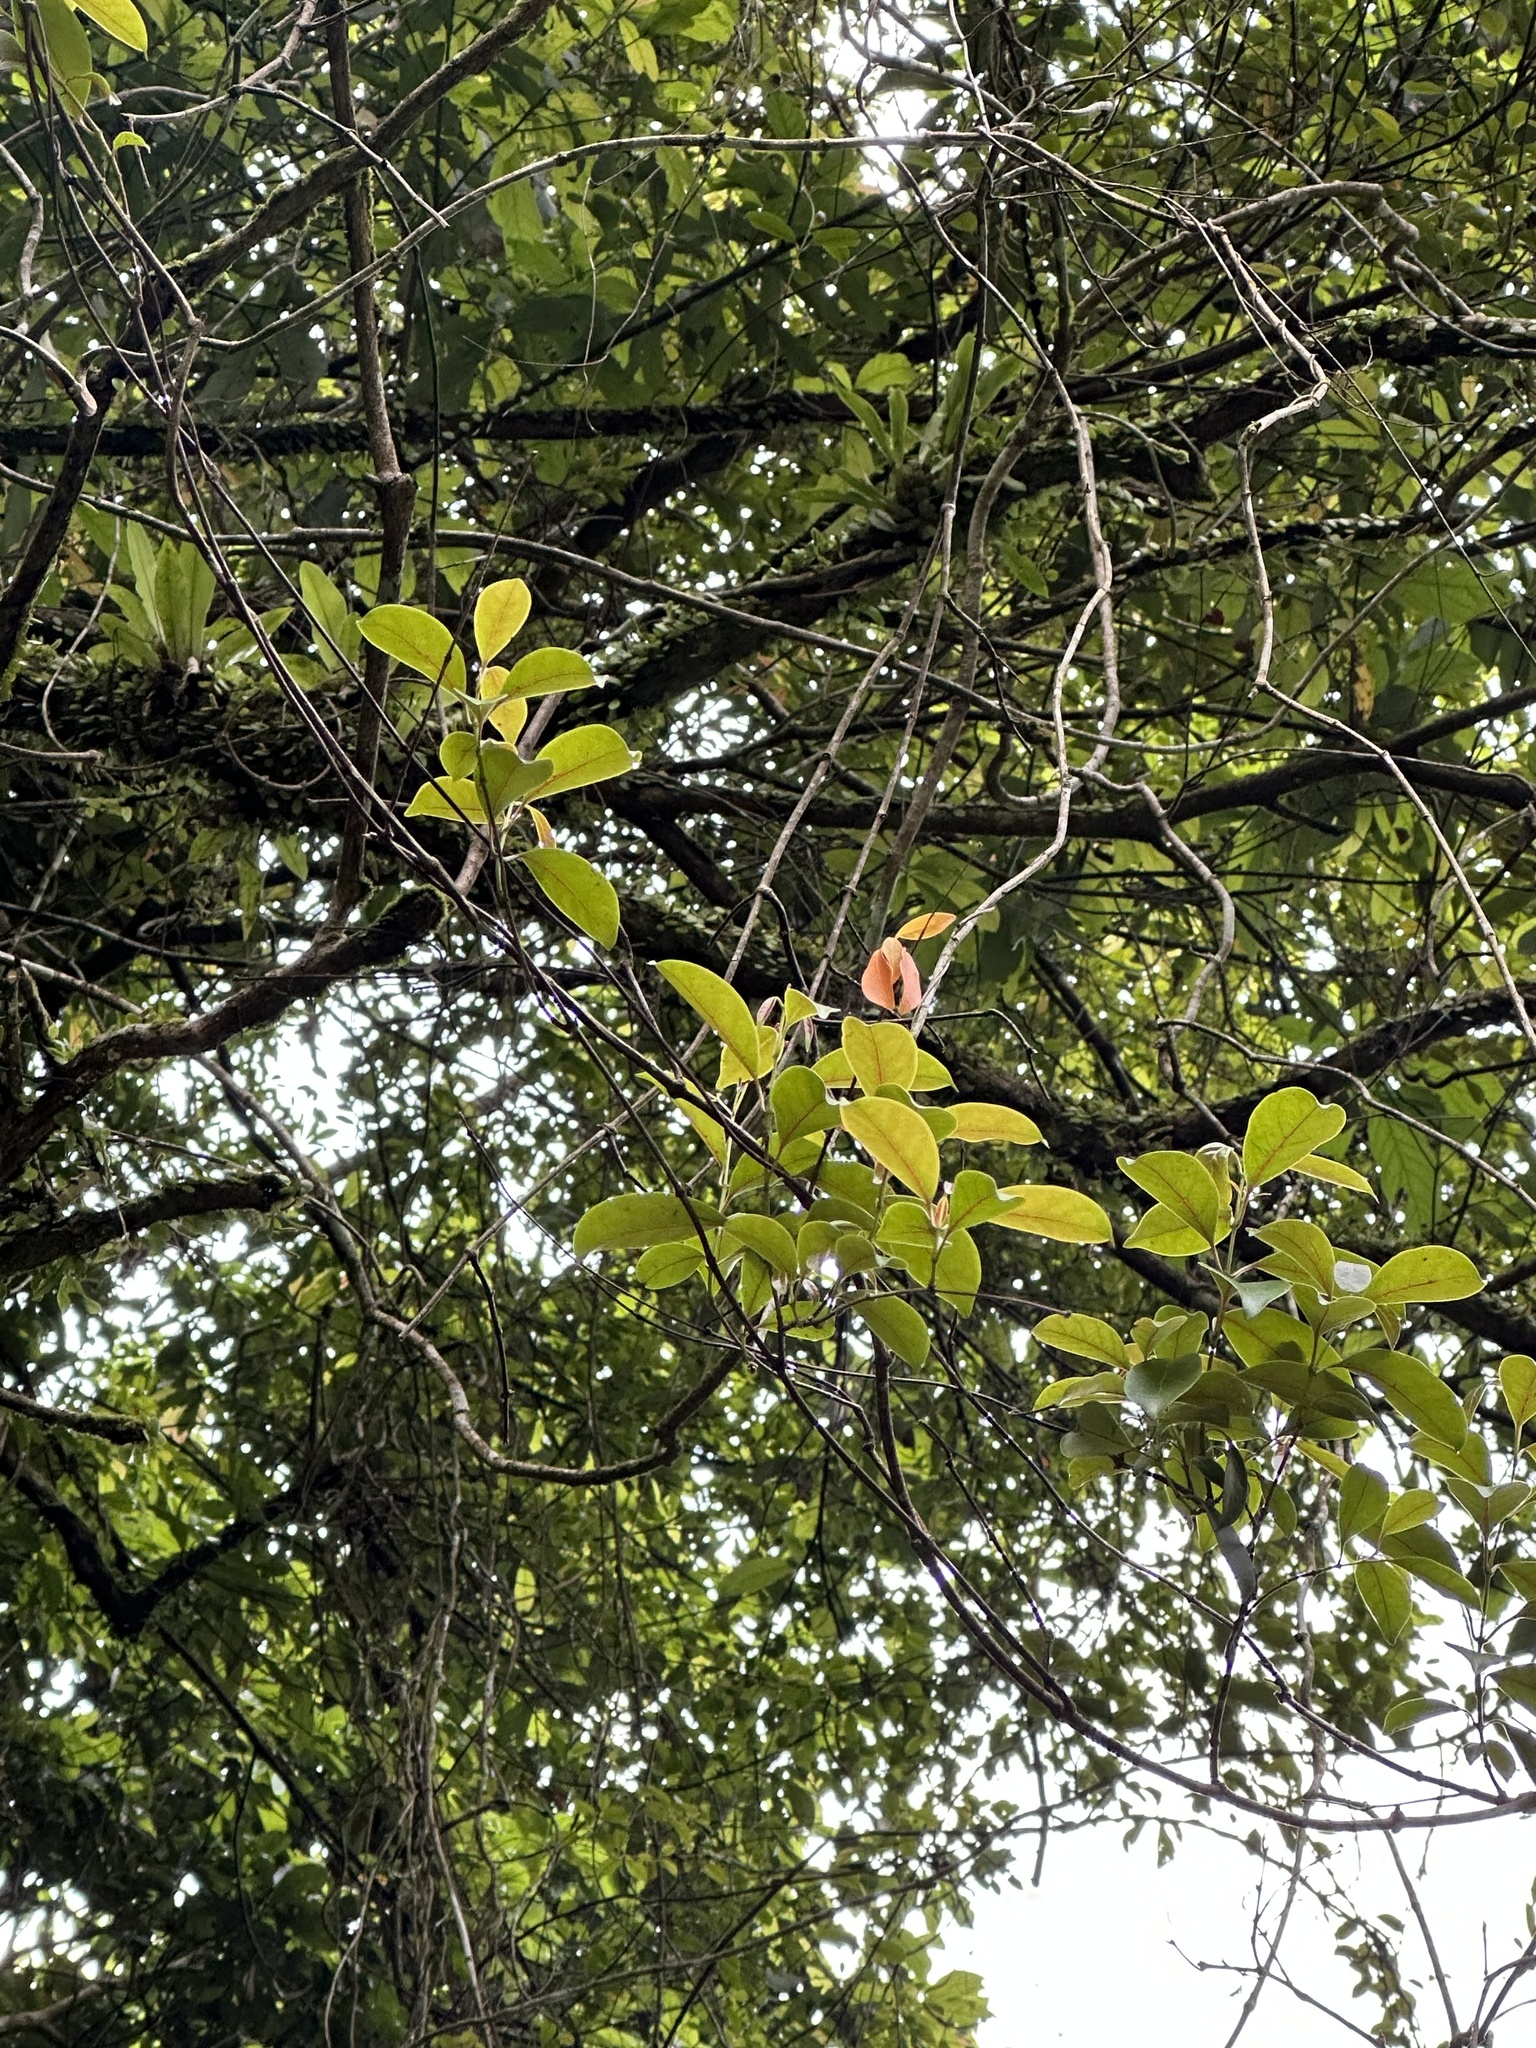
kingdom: Plantae
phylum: Tracheophyta
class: Magnoliopsida
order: Gentianales
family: Apocynaceae
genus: Urceola
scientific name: Urceola rosea
